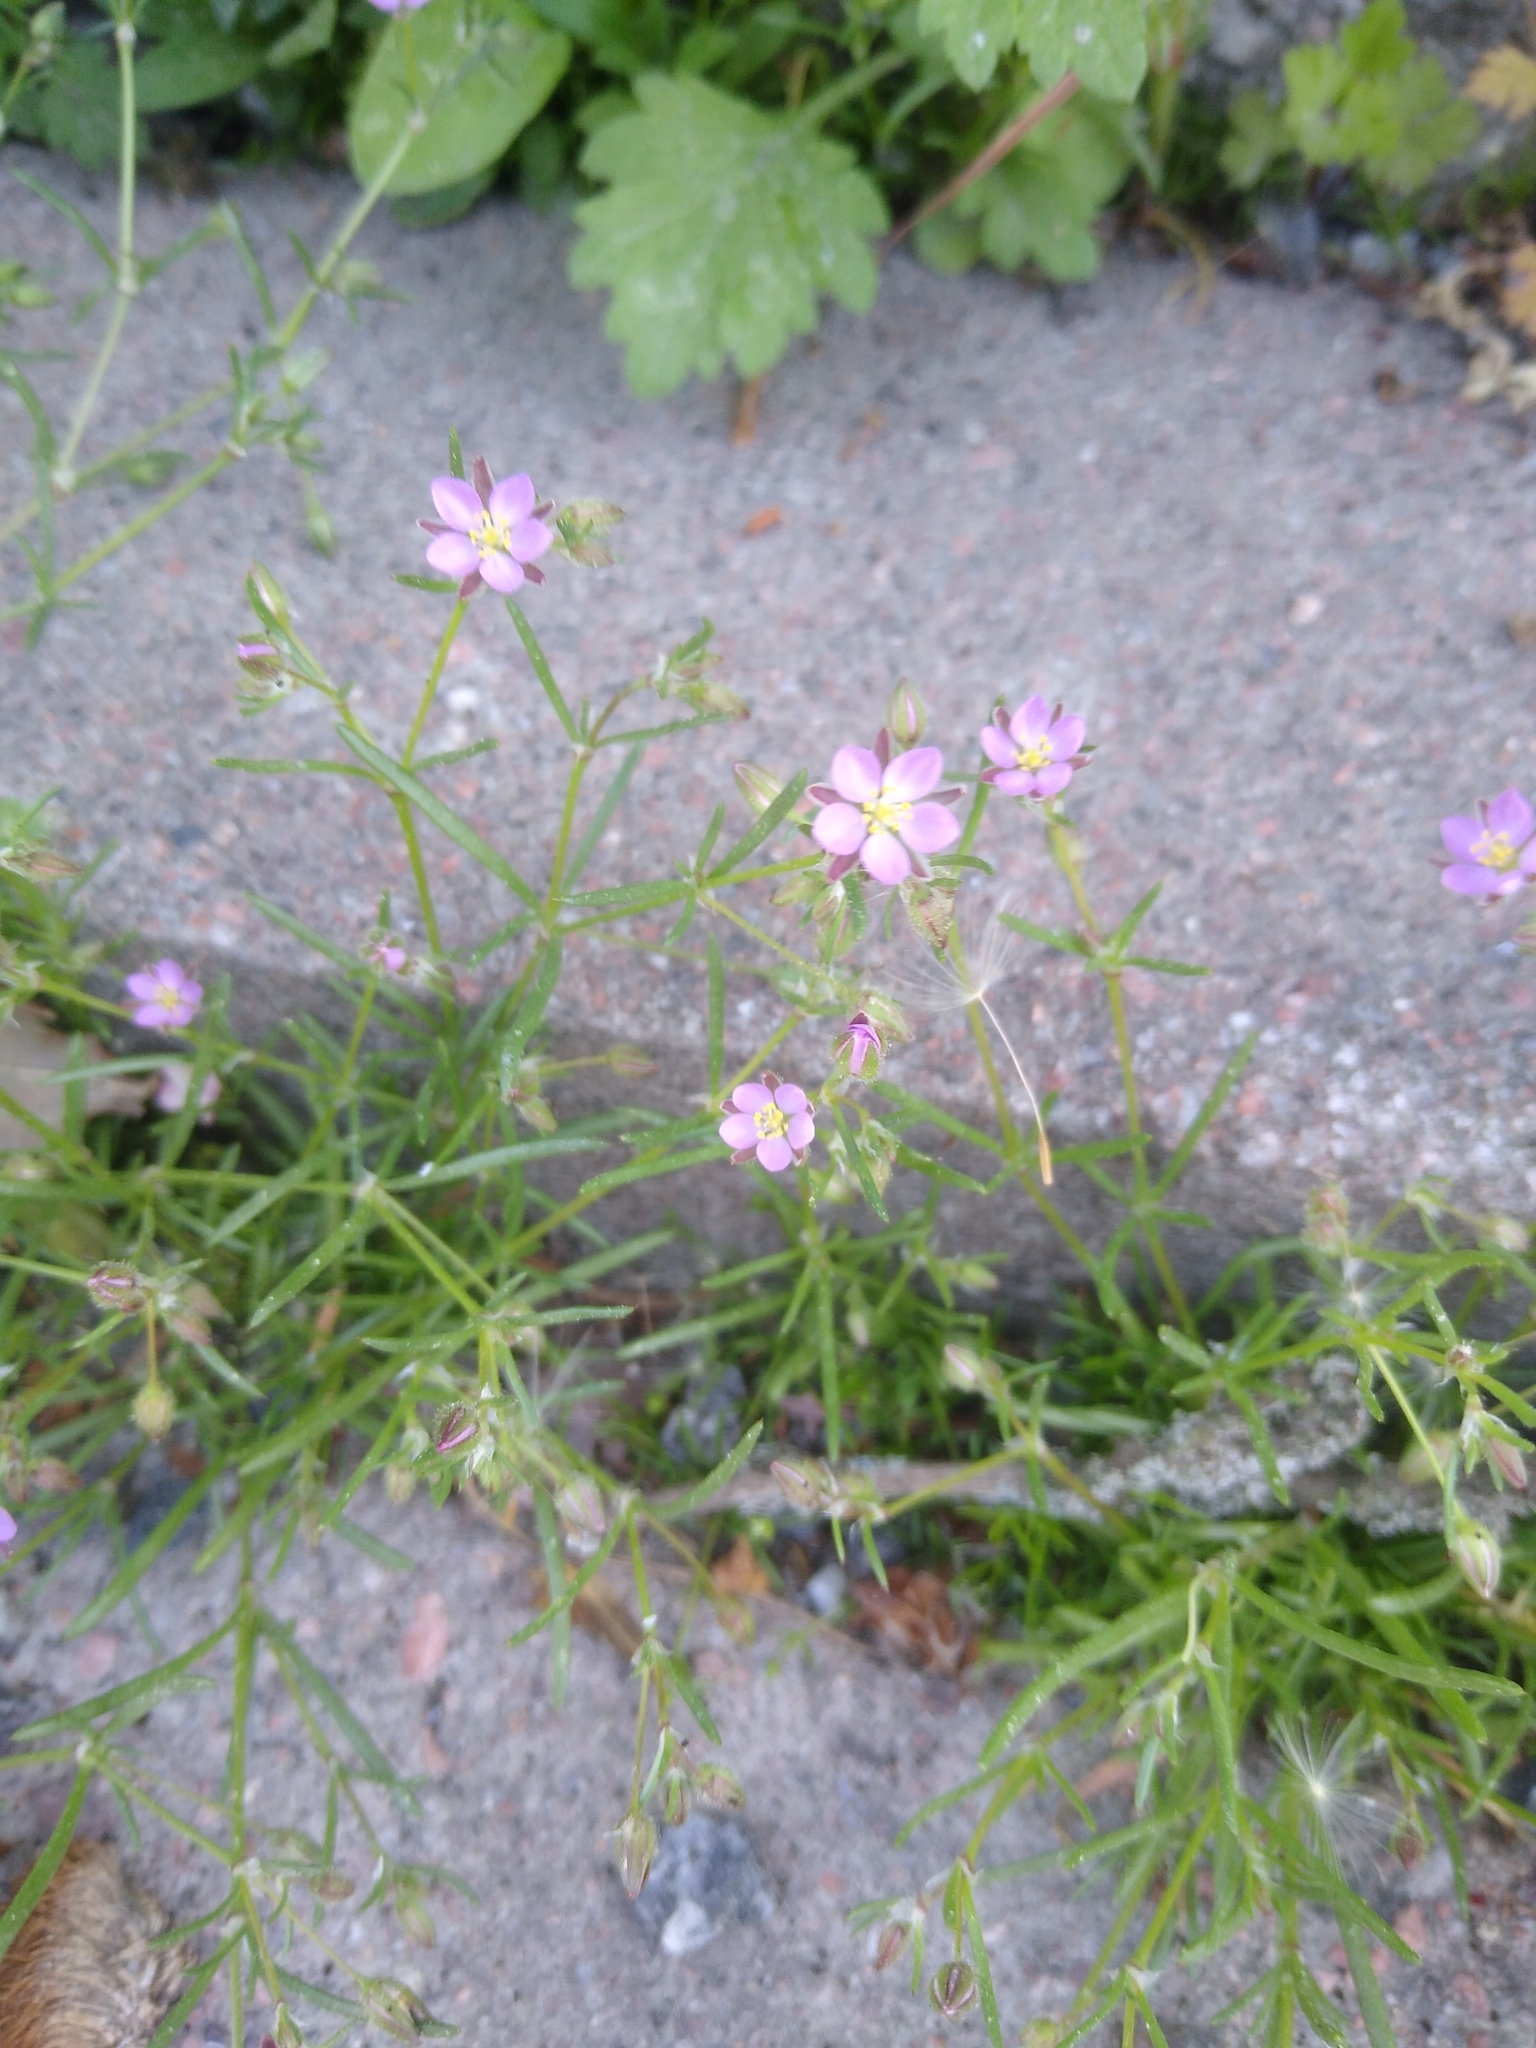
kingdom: Plantae
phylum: Tracheophyta
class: Magnoliopsida
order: Caryophyllales
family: Caryophyllaceae
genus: Spergularia
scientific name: Spergularia rubra
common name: Red sand-spurrey
